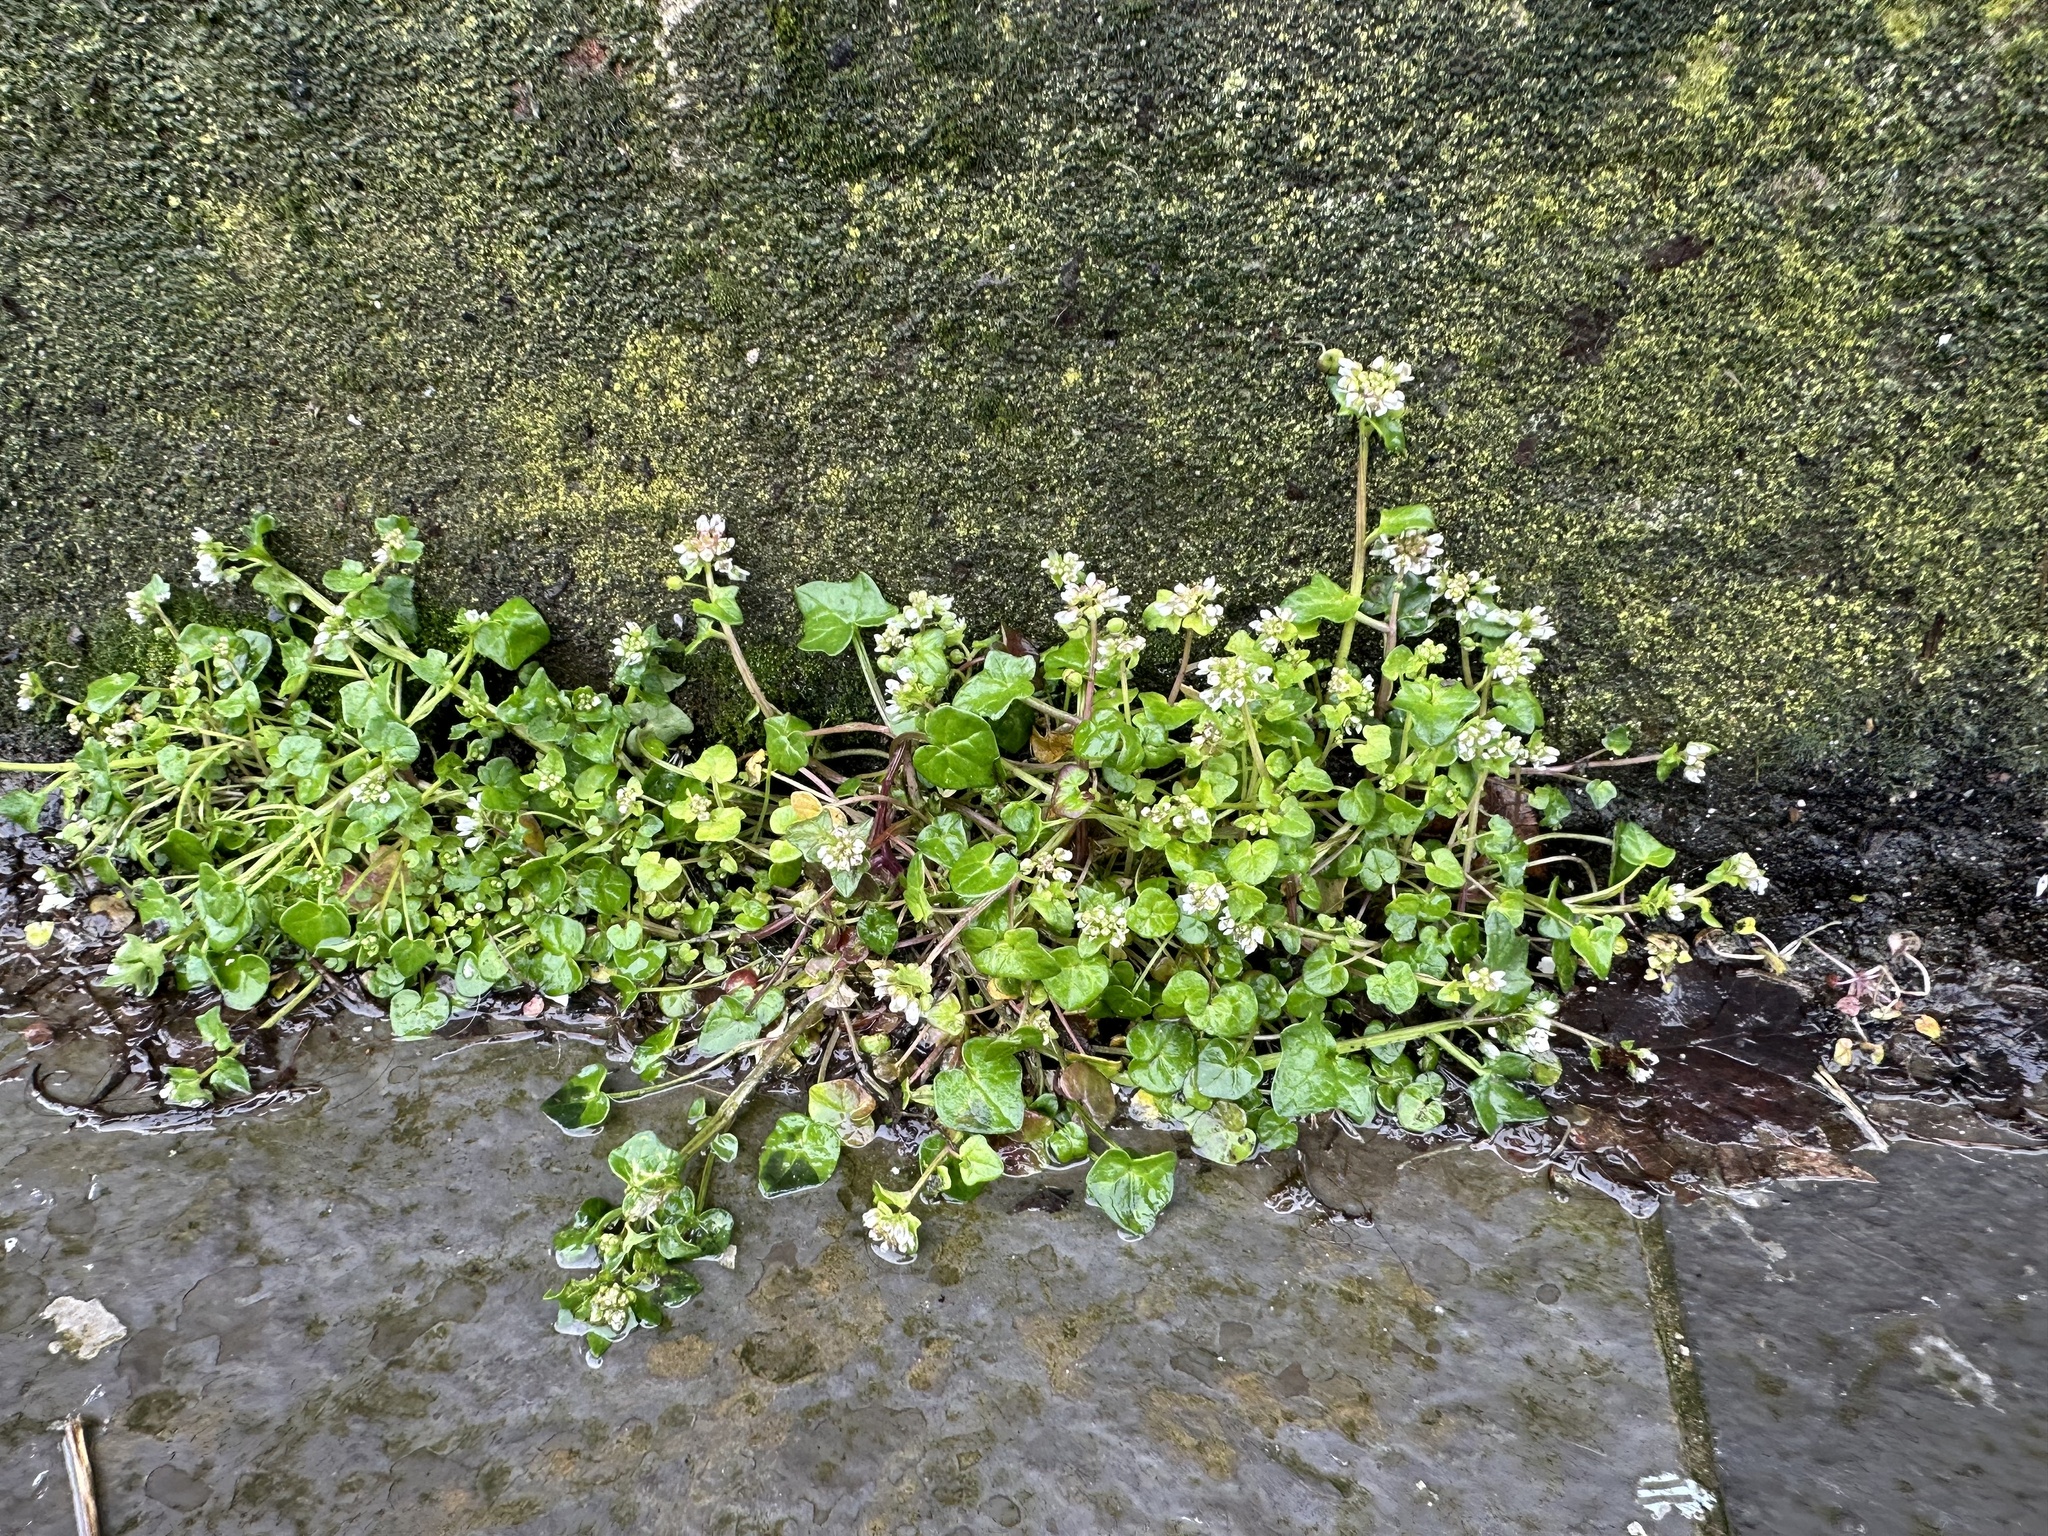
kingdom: Plantae
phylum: Tracheophyta
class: Magnoliopsida
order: Brassicales
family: Brassicaceae
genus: Cochlearia
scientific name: Cochlearia danica
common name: Early scurvygrass
